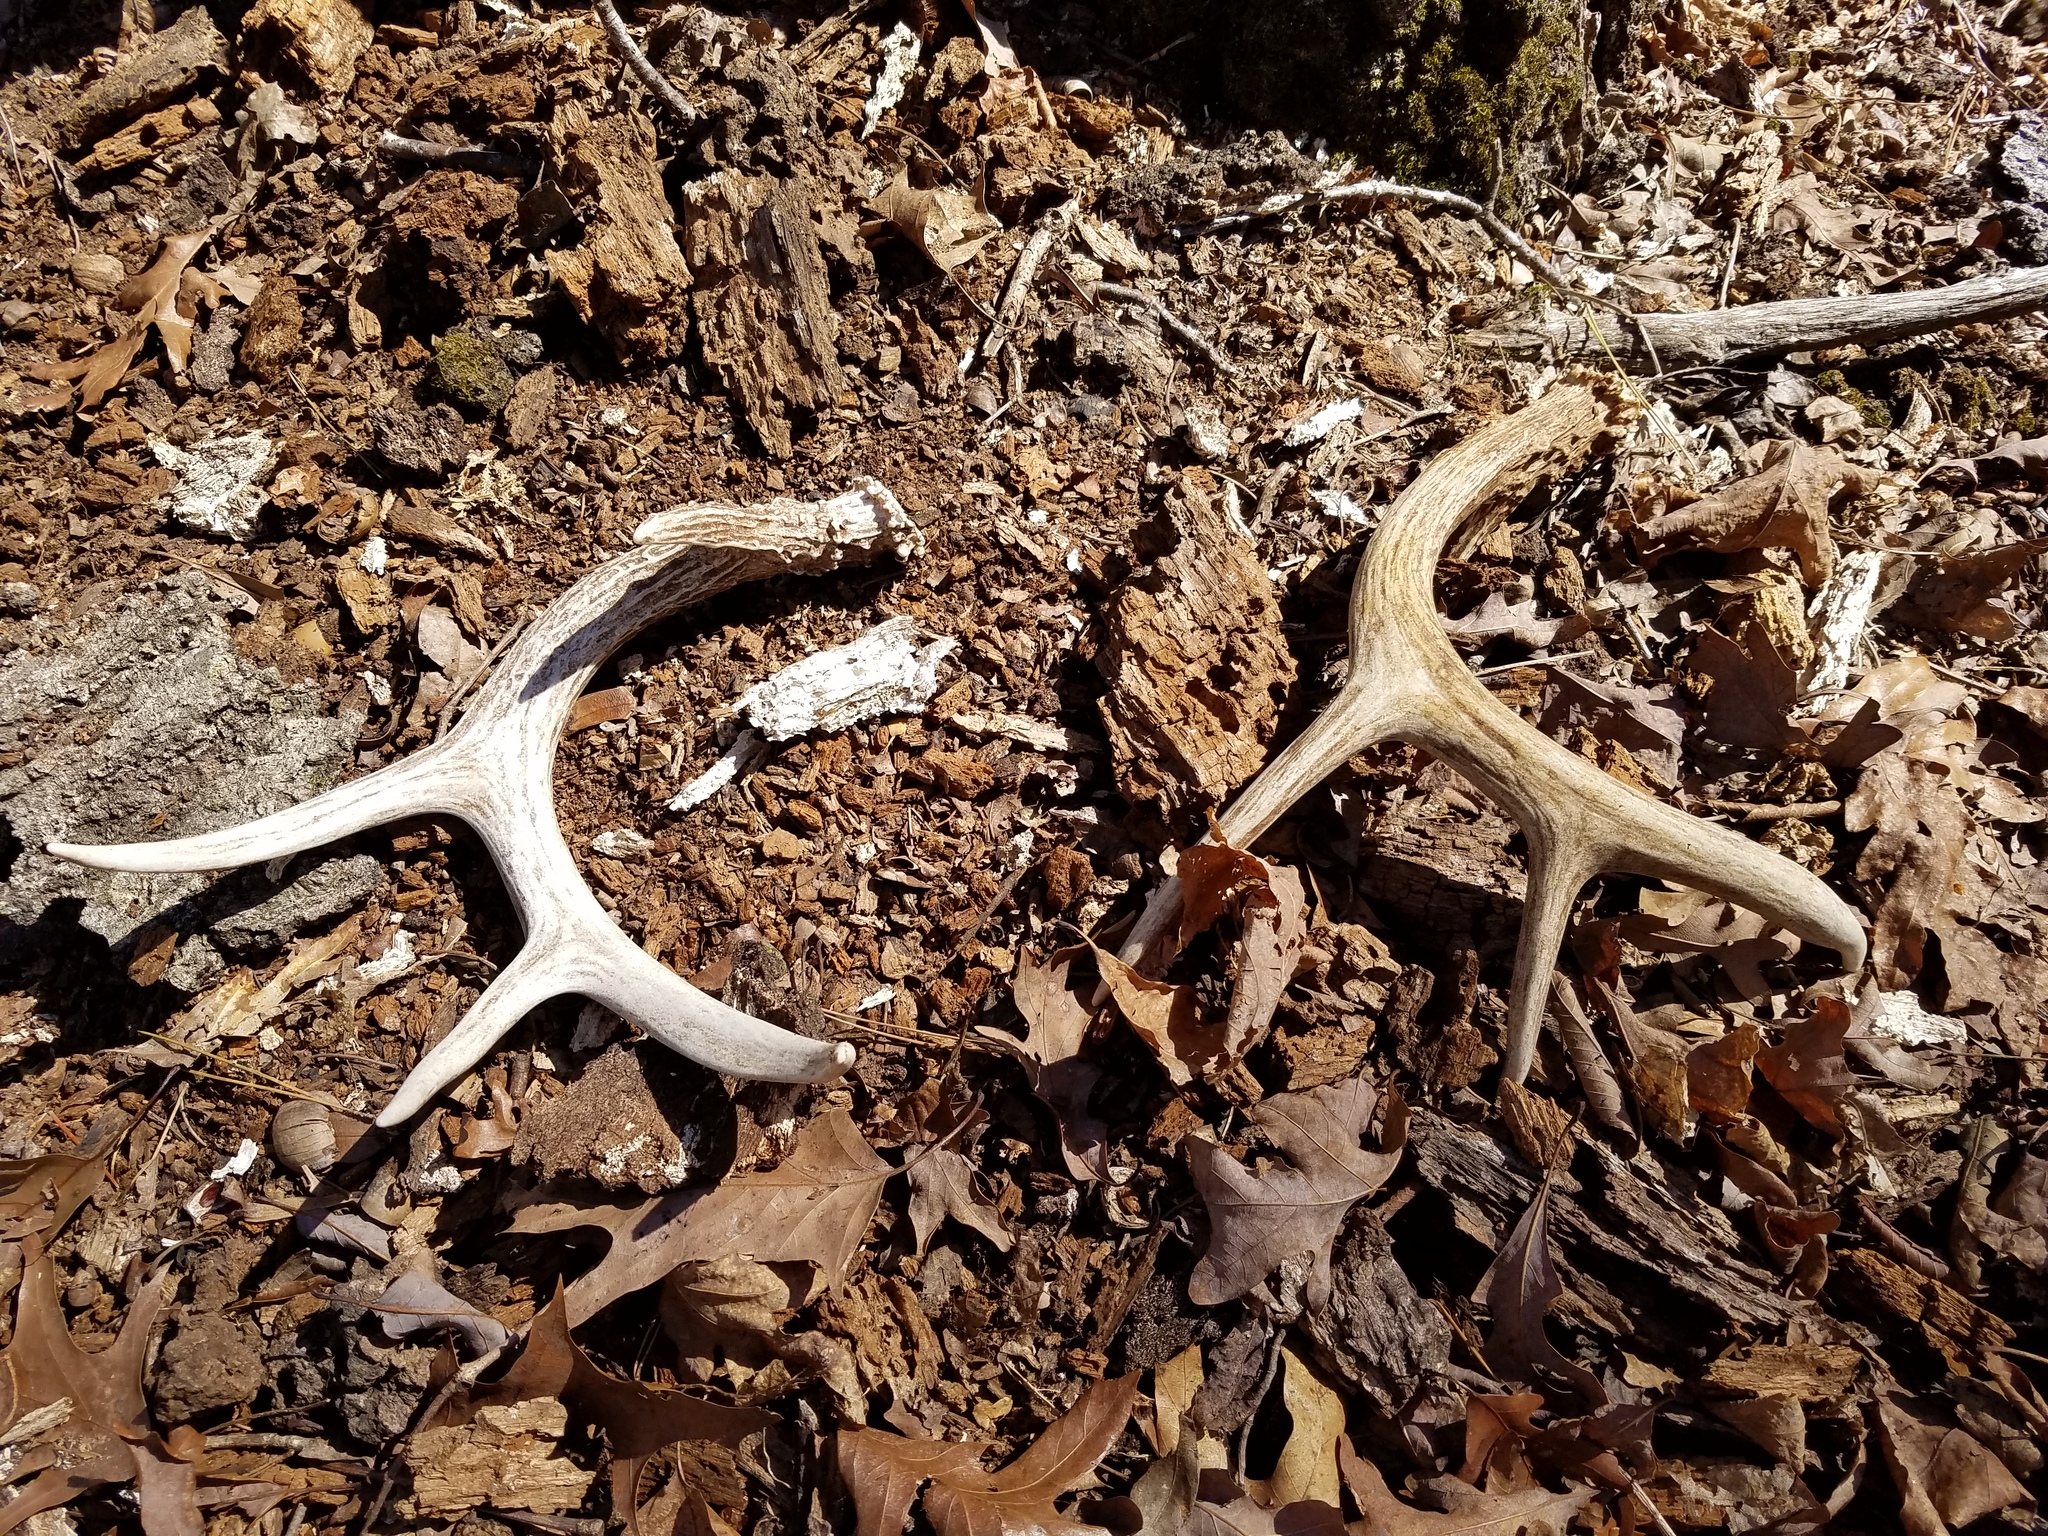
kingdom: Animalia
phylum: Chordata
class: Mammalia
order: Artiodactyla
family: Cervidae
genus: Odocoileus
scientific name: Odocoileus virginianus
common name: White-tailed deer
